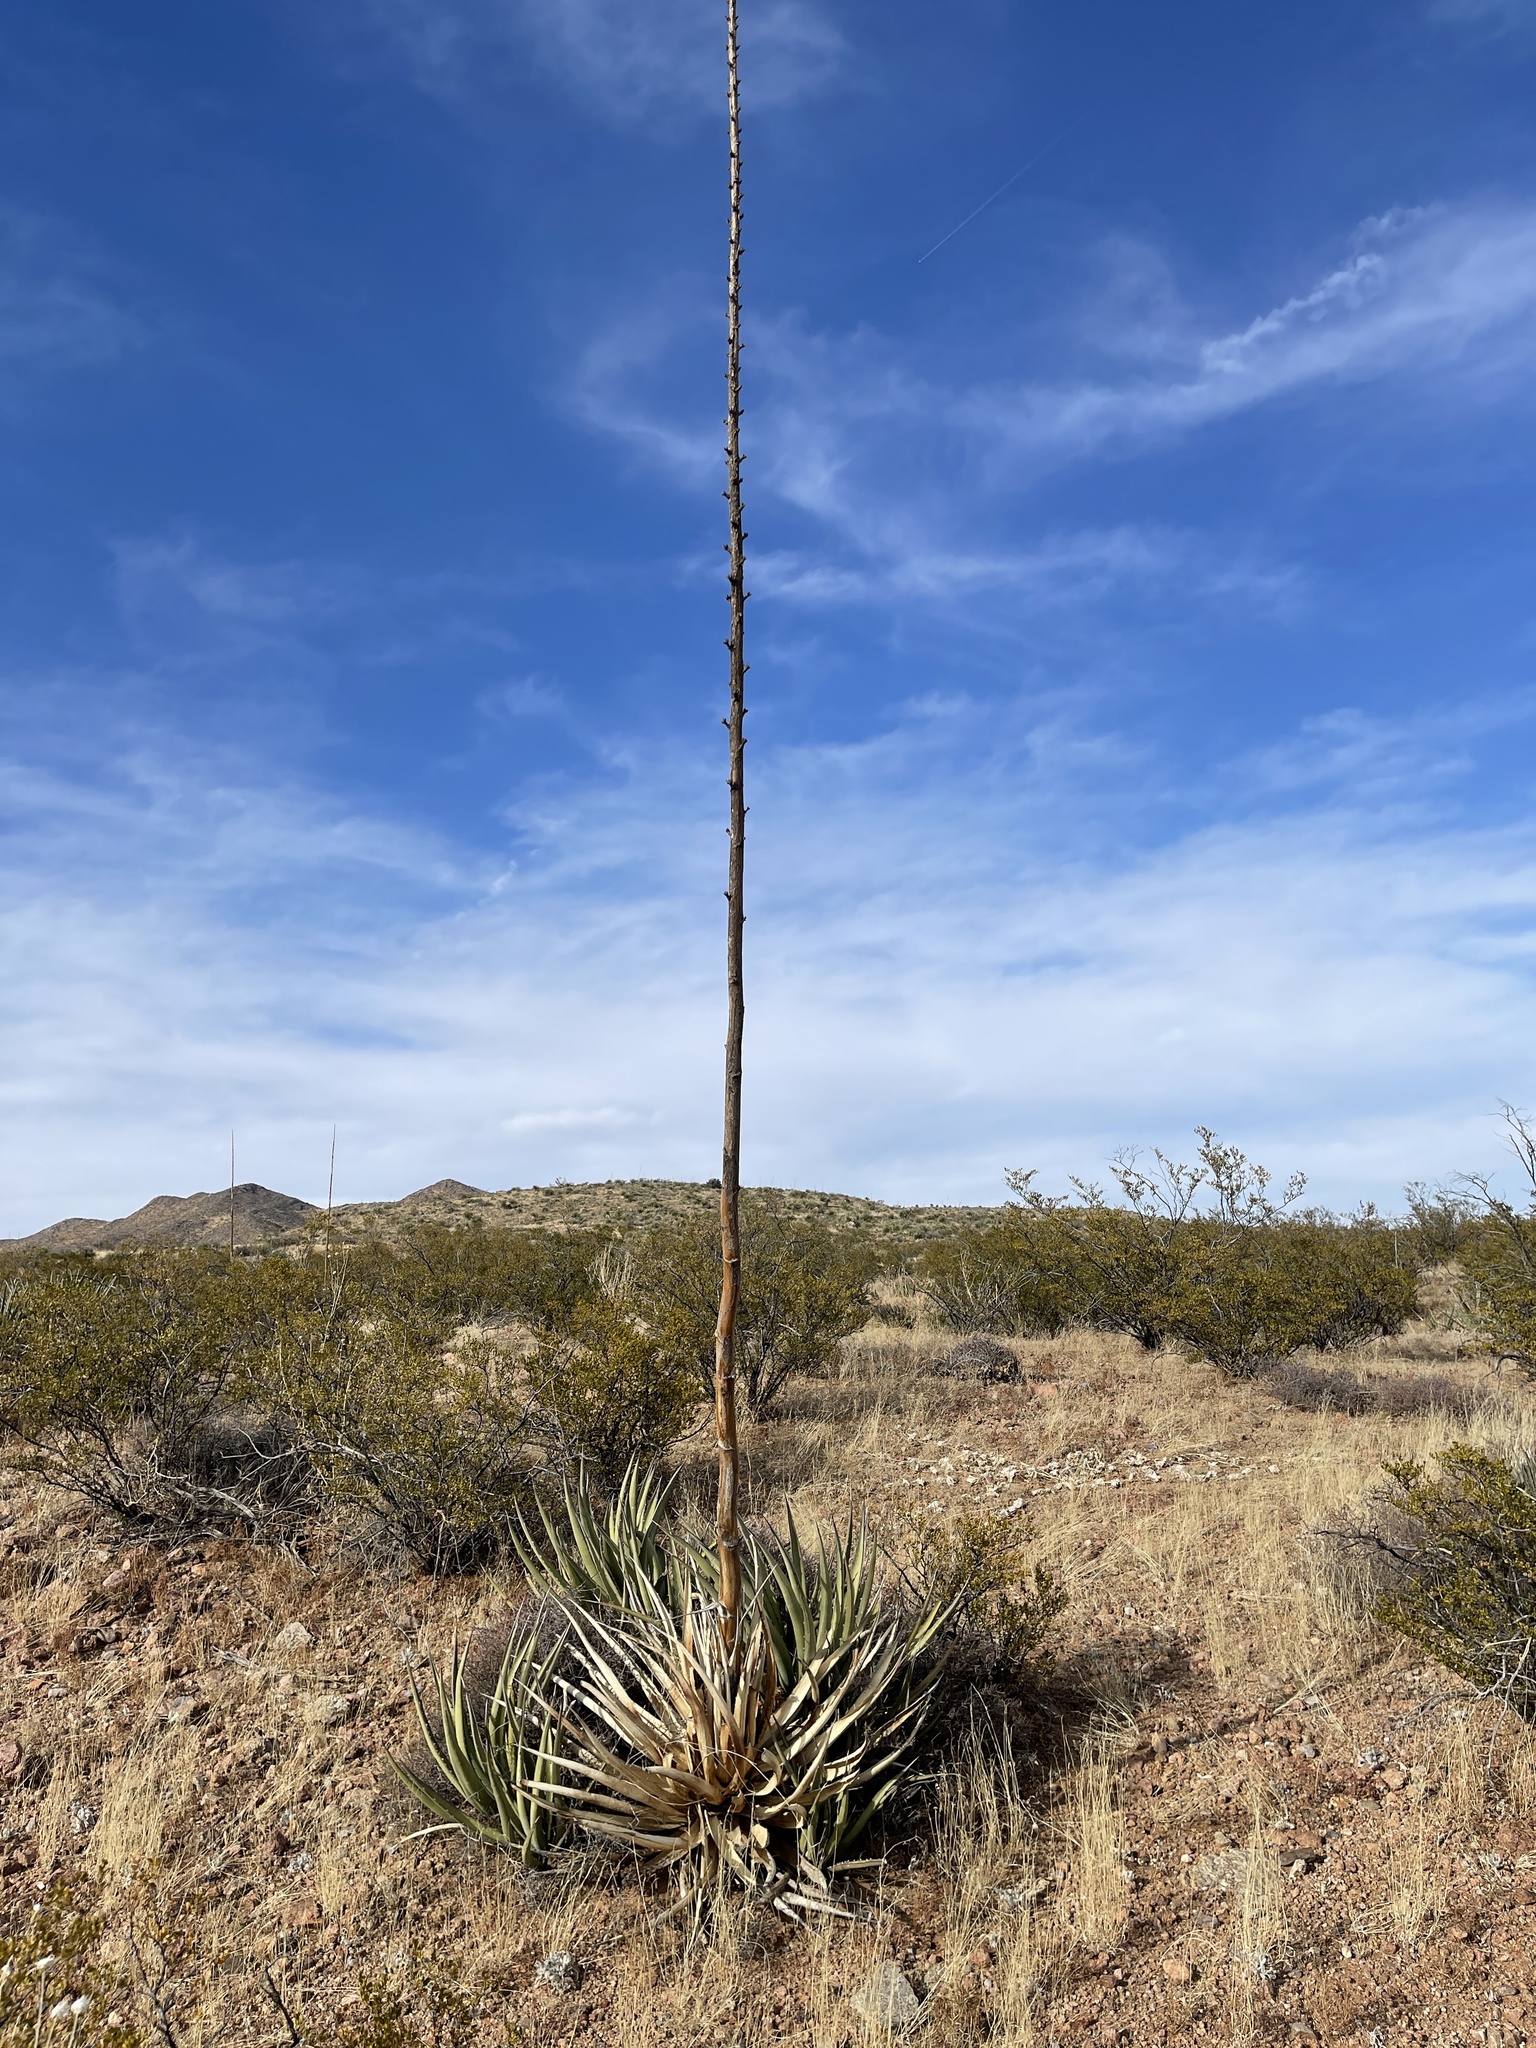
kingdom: Plantae
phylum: Tracheophyta
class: Liliopsida
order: Asparagales
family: Asparagaceae
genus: Agave
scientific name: Agave lechuguilla
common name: Lecheguilla agave
